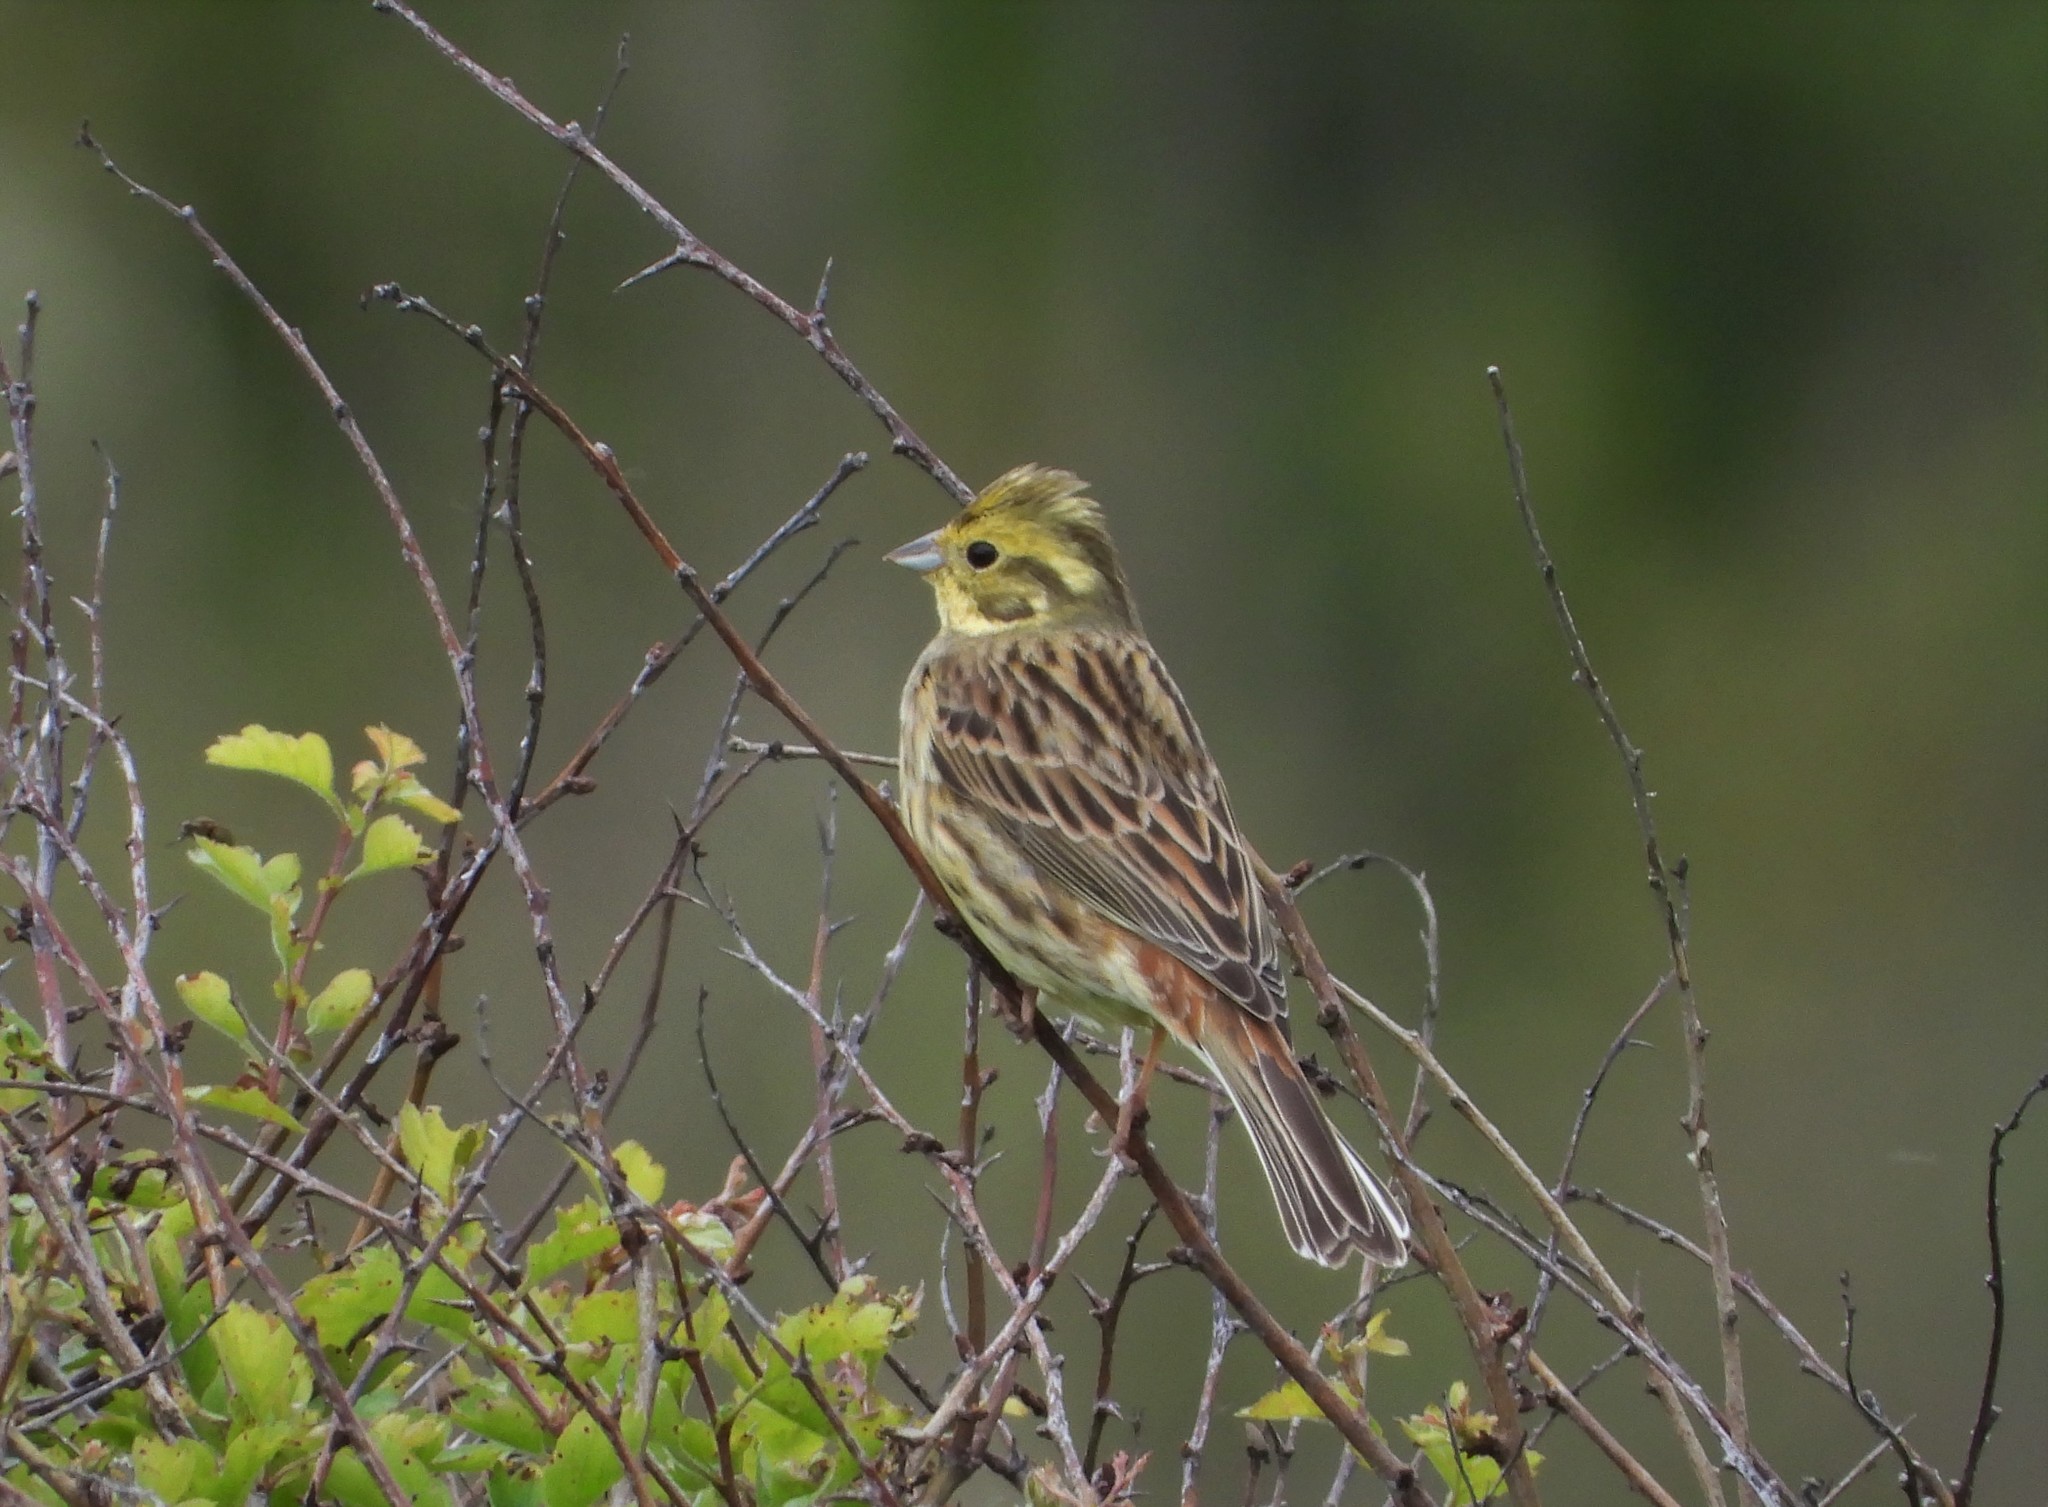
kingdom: Animalia
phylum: Chordata
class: Aves
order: Passeriformes
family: Emberizidae
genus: Emberiza
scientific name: Emberiza citrinella
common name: Yellowhammer
